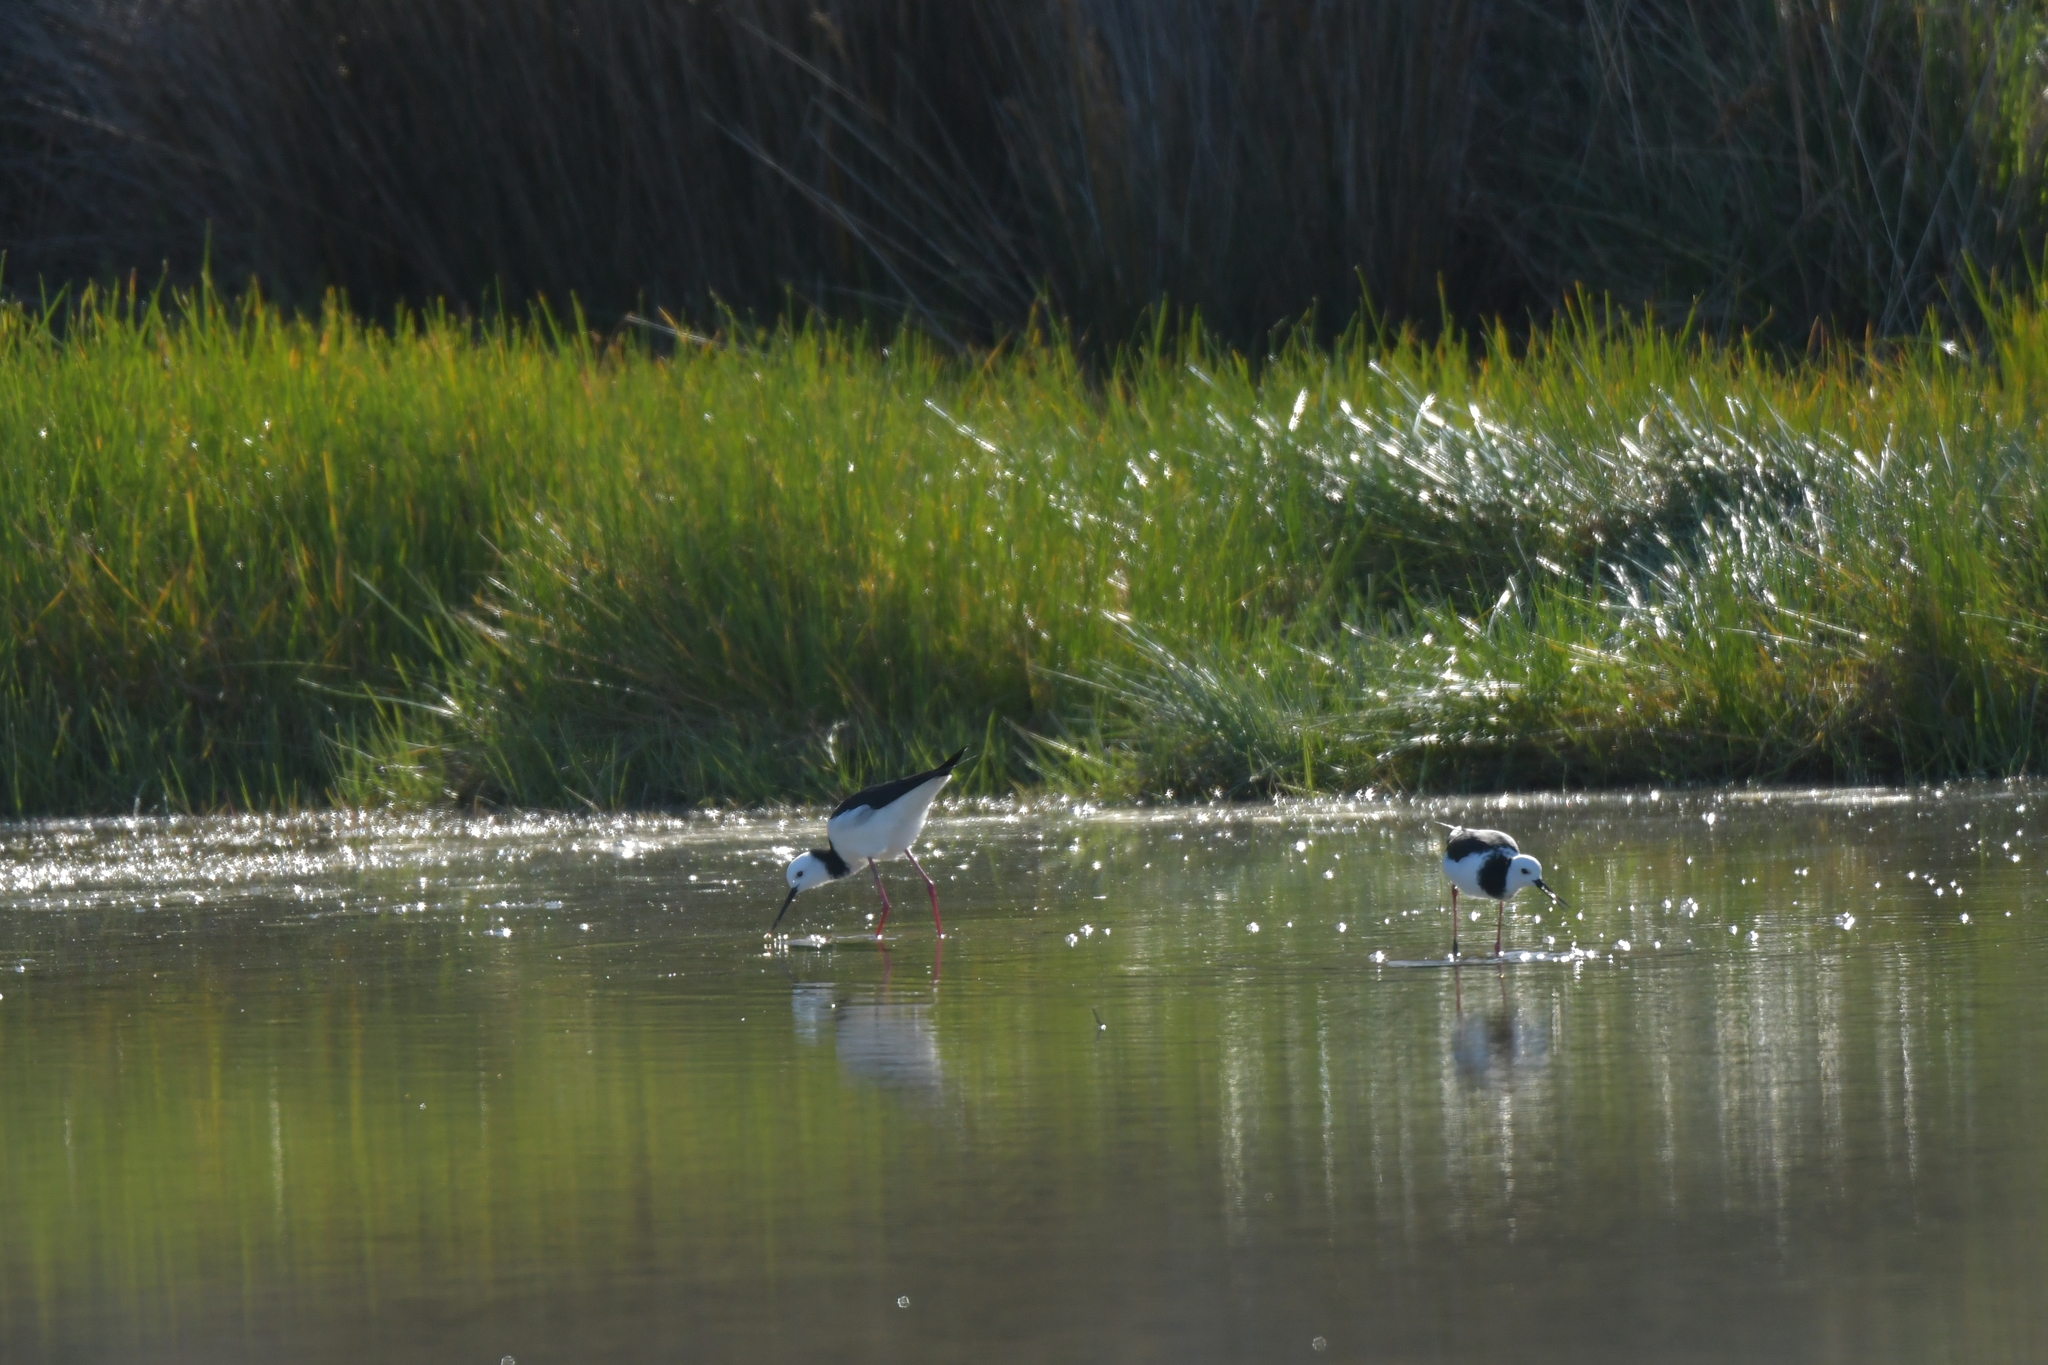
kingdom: Animalia
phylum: Chordata
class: Aves
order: Charadriiformes
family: Recurvirostridae
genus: Himantopus
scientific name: Himantopus leucocephalus
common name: White-headed stilt
